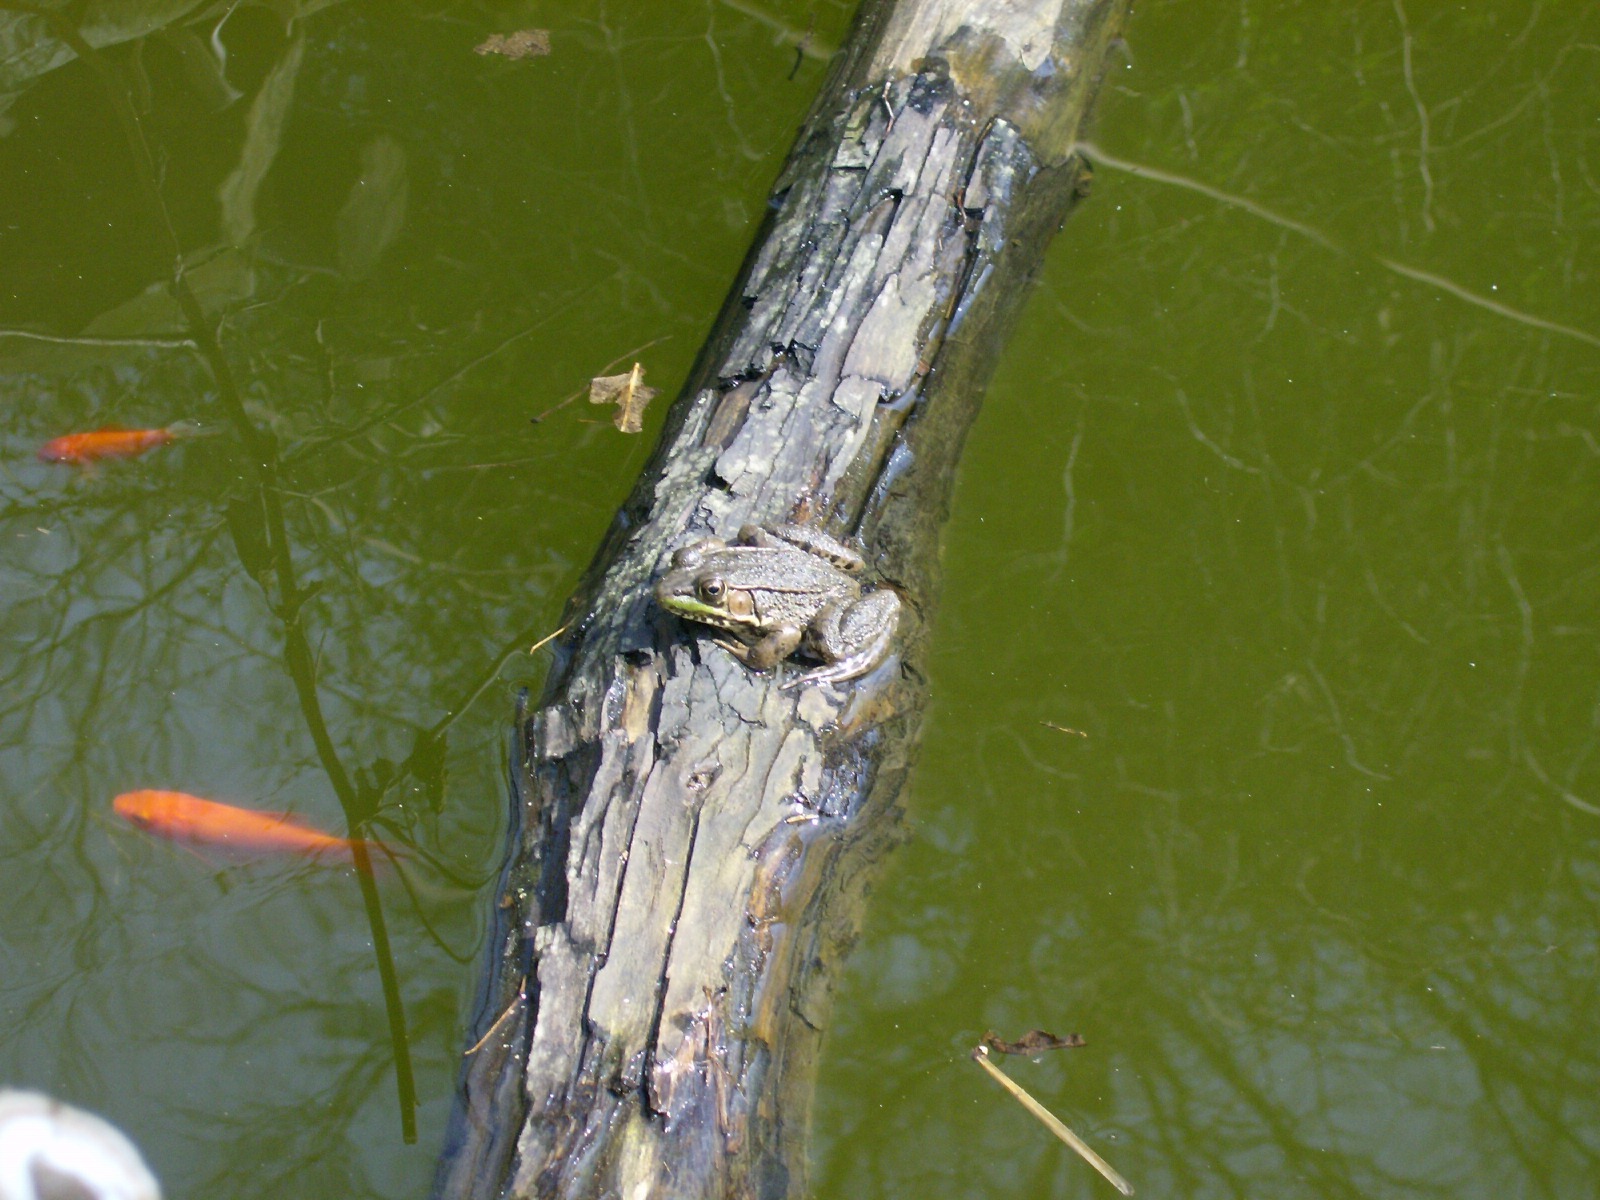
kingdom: Animalia
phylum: Chordata
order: Cypriniformes
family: Cyprinidae
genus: Carassius
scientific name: Carassius auratus
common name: Goldfish
